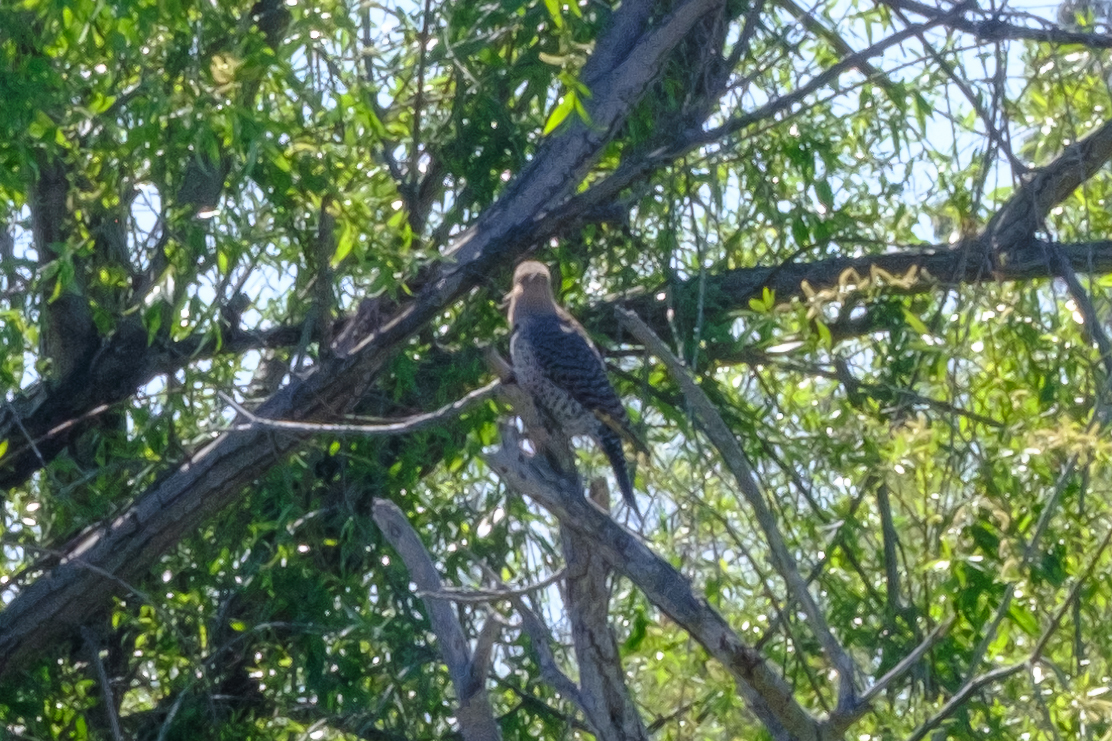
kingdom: Animalia
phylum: Chordata
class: Aves
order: Piciformes
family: Picidae
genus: Colaptes
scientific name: Colaptes auratus
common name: Northern flicker
